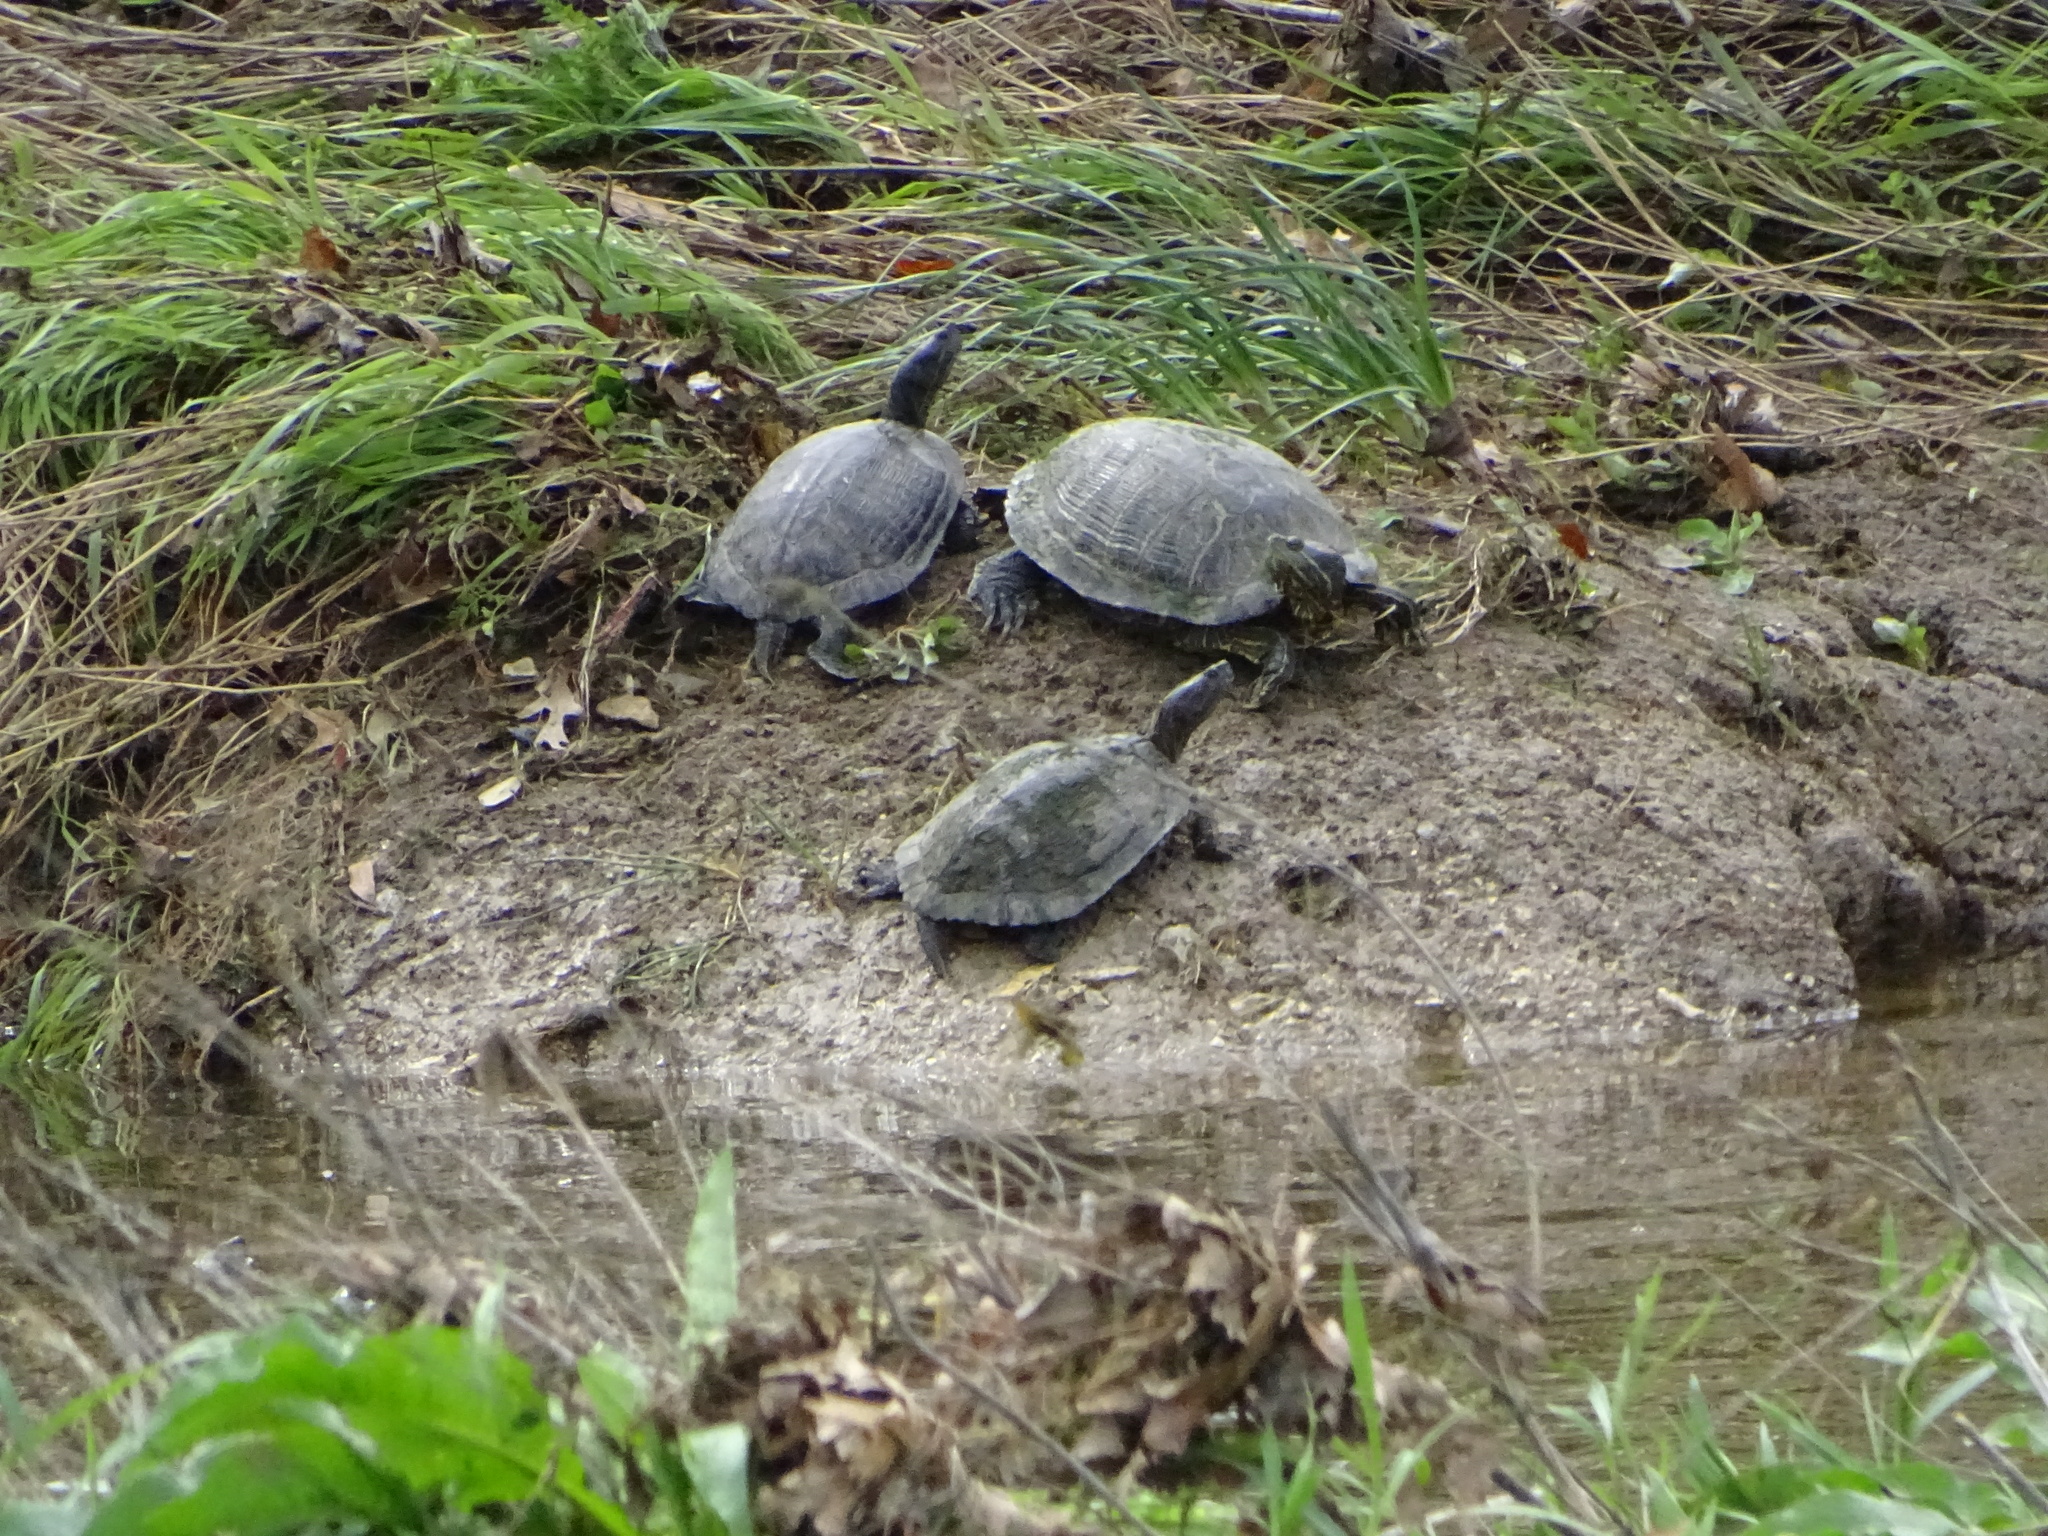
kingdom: Animalia
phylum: Chordata
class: Testudines
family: Emydidae
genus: Trachemys
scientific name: Trachemys scripta
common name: Slider
